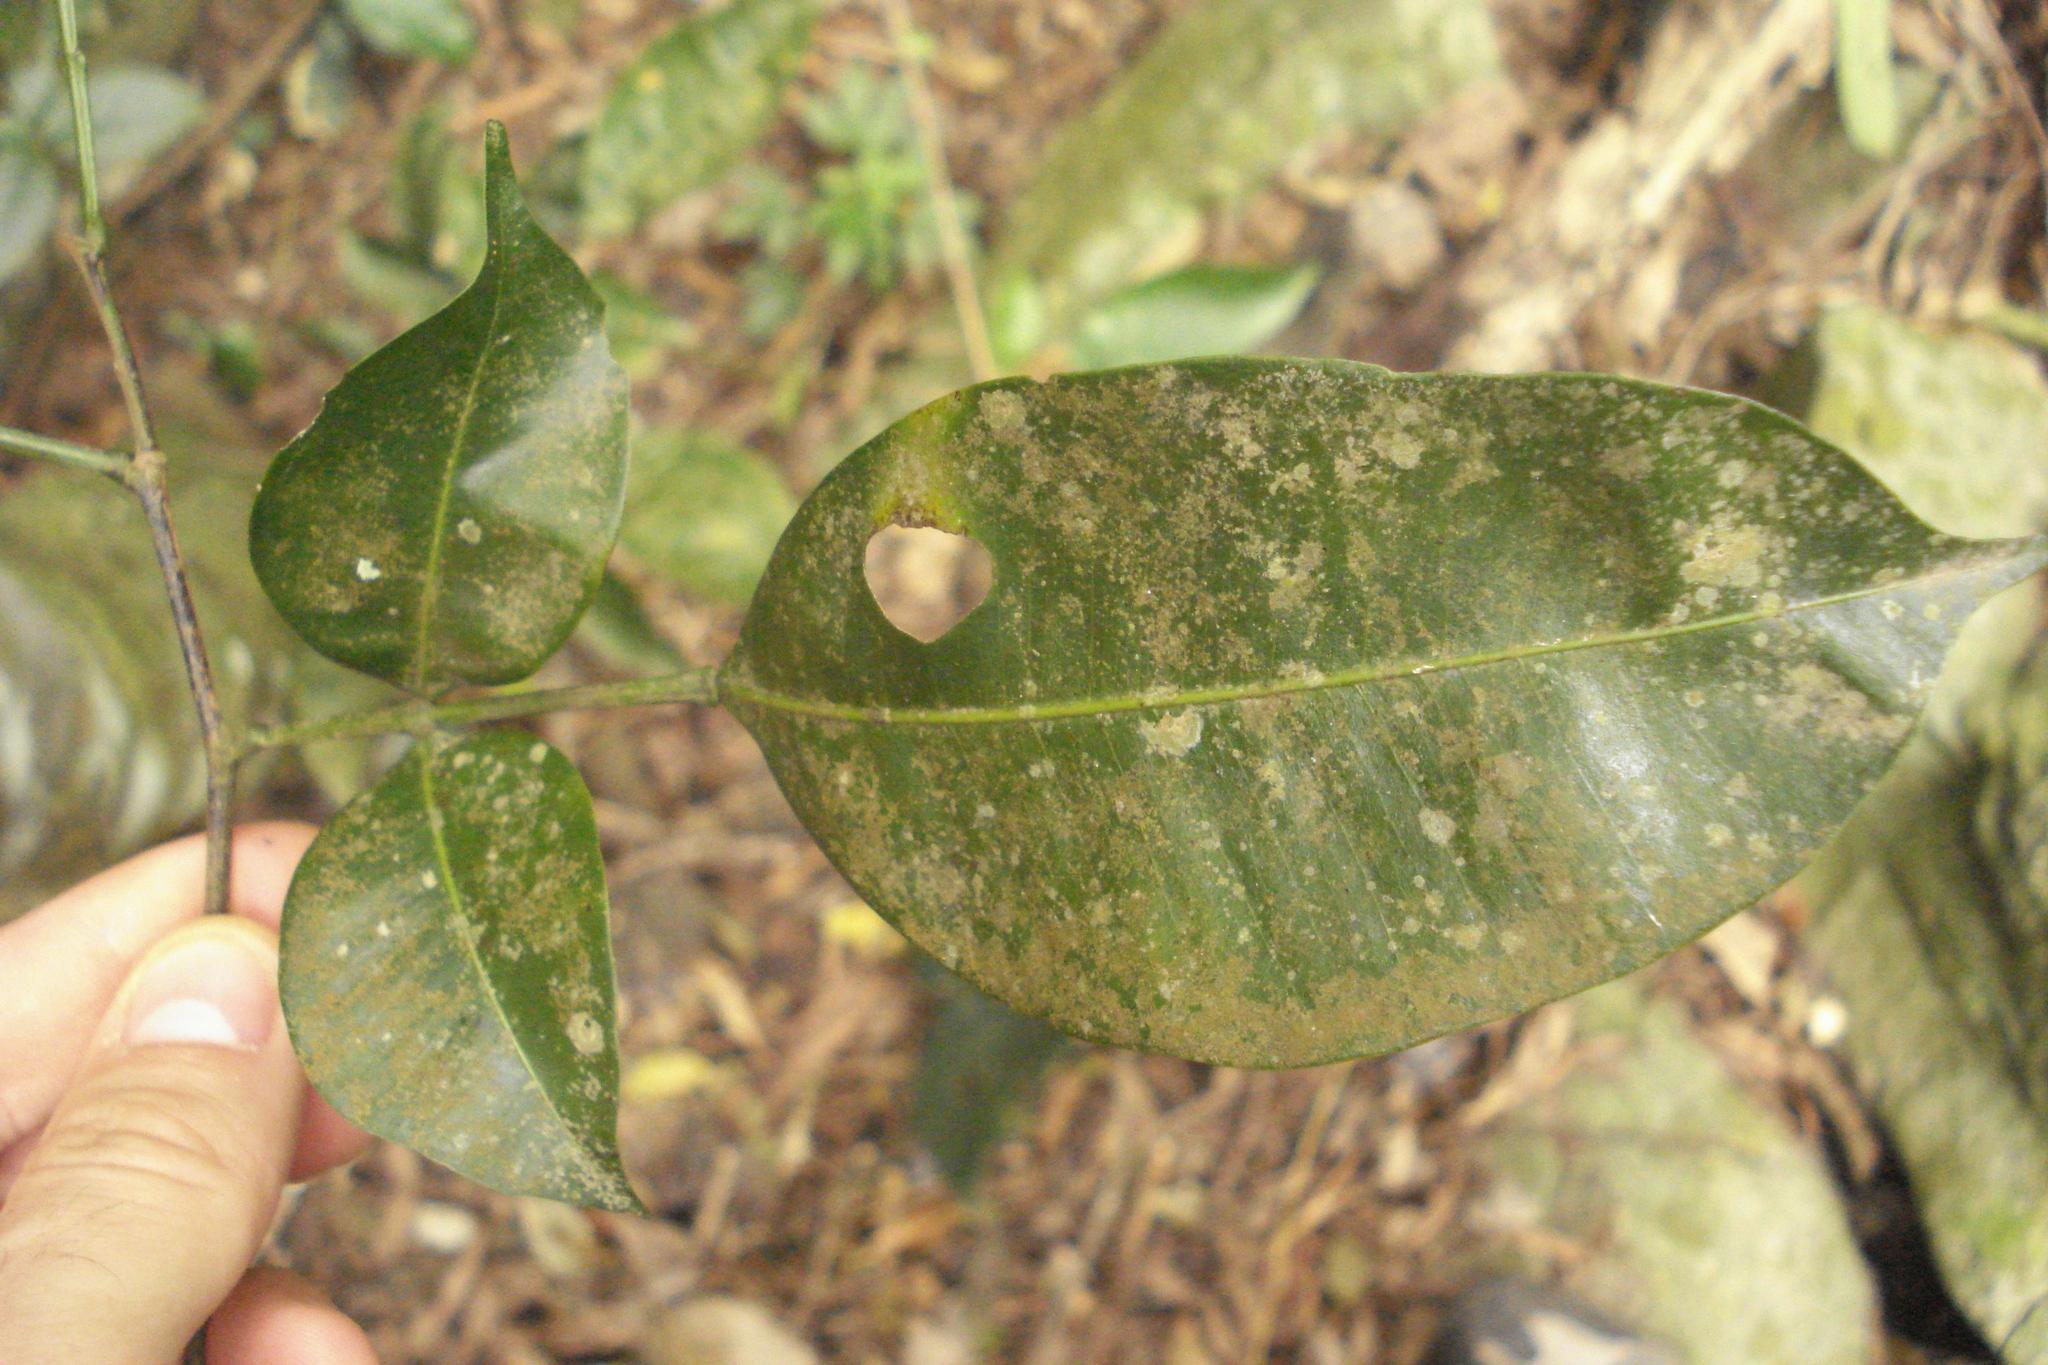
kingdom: Plantae
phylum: Tracheophyta
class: Magnoliopsida
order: Fabales
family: Fabaceae
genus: Swartzia
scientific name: Swartzia simplex
